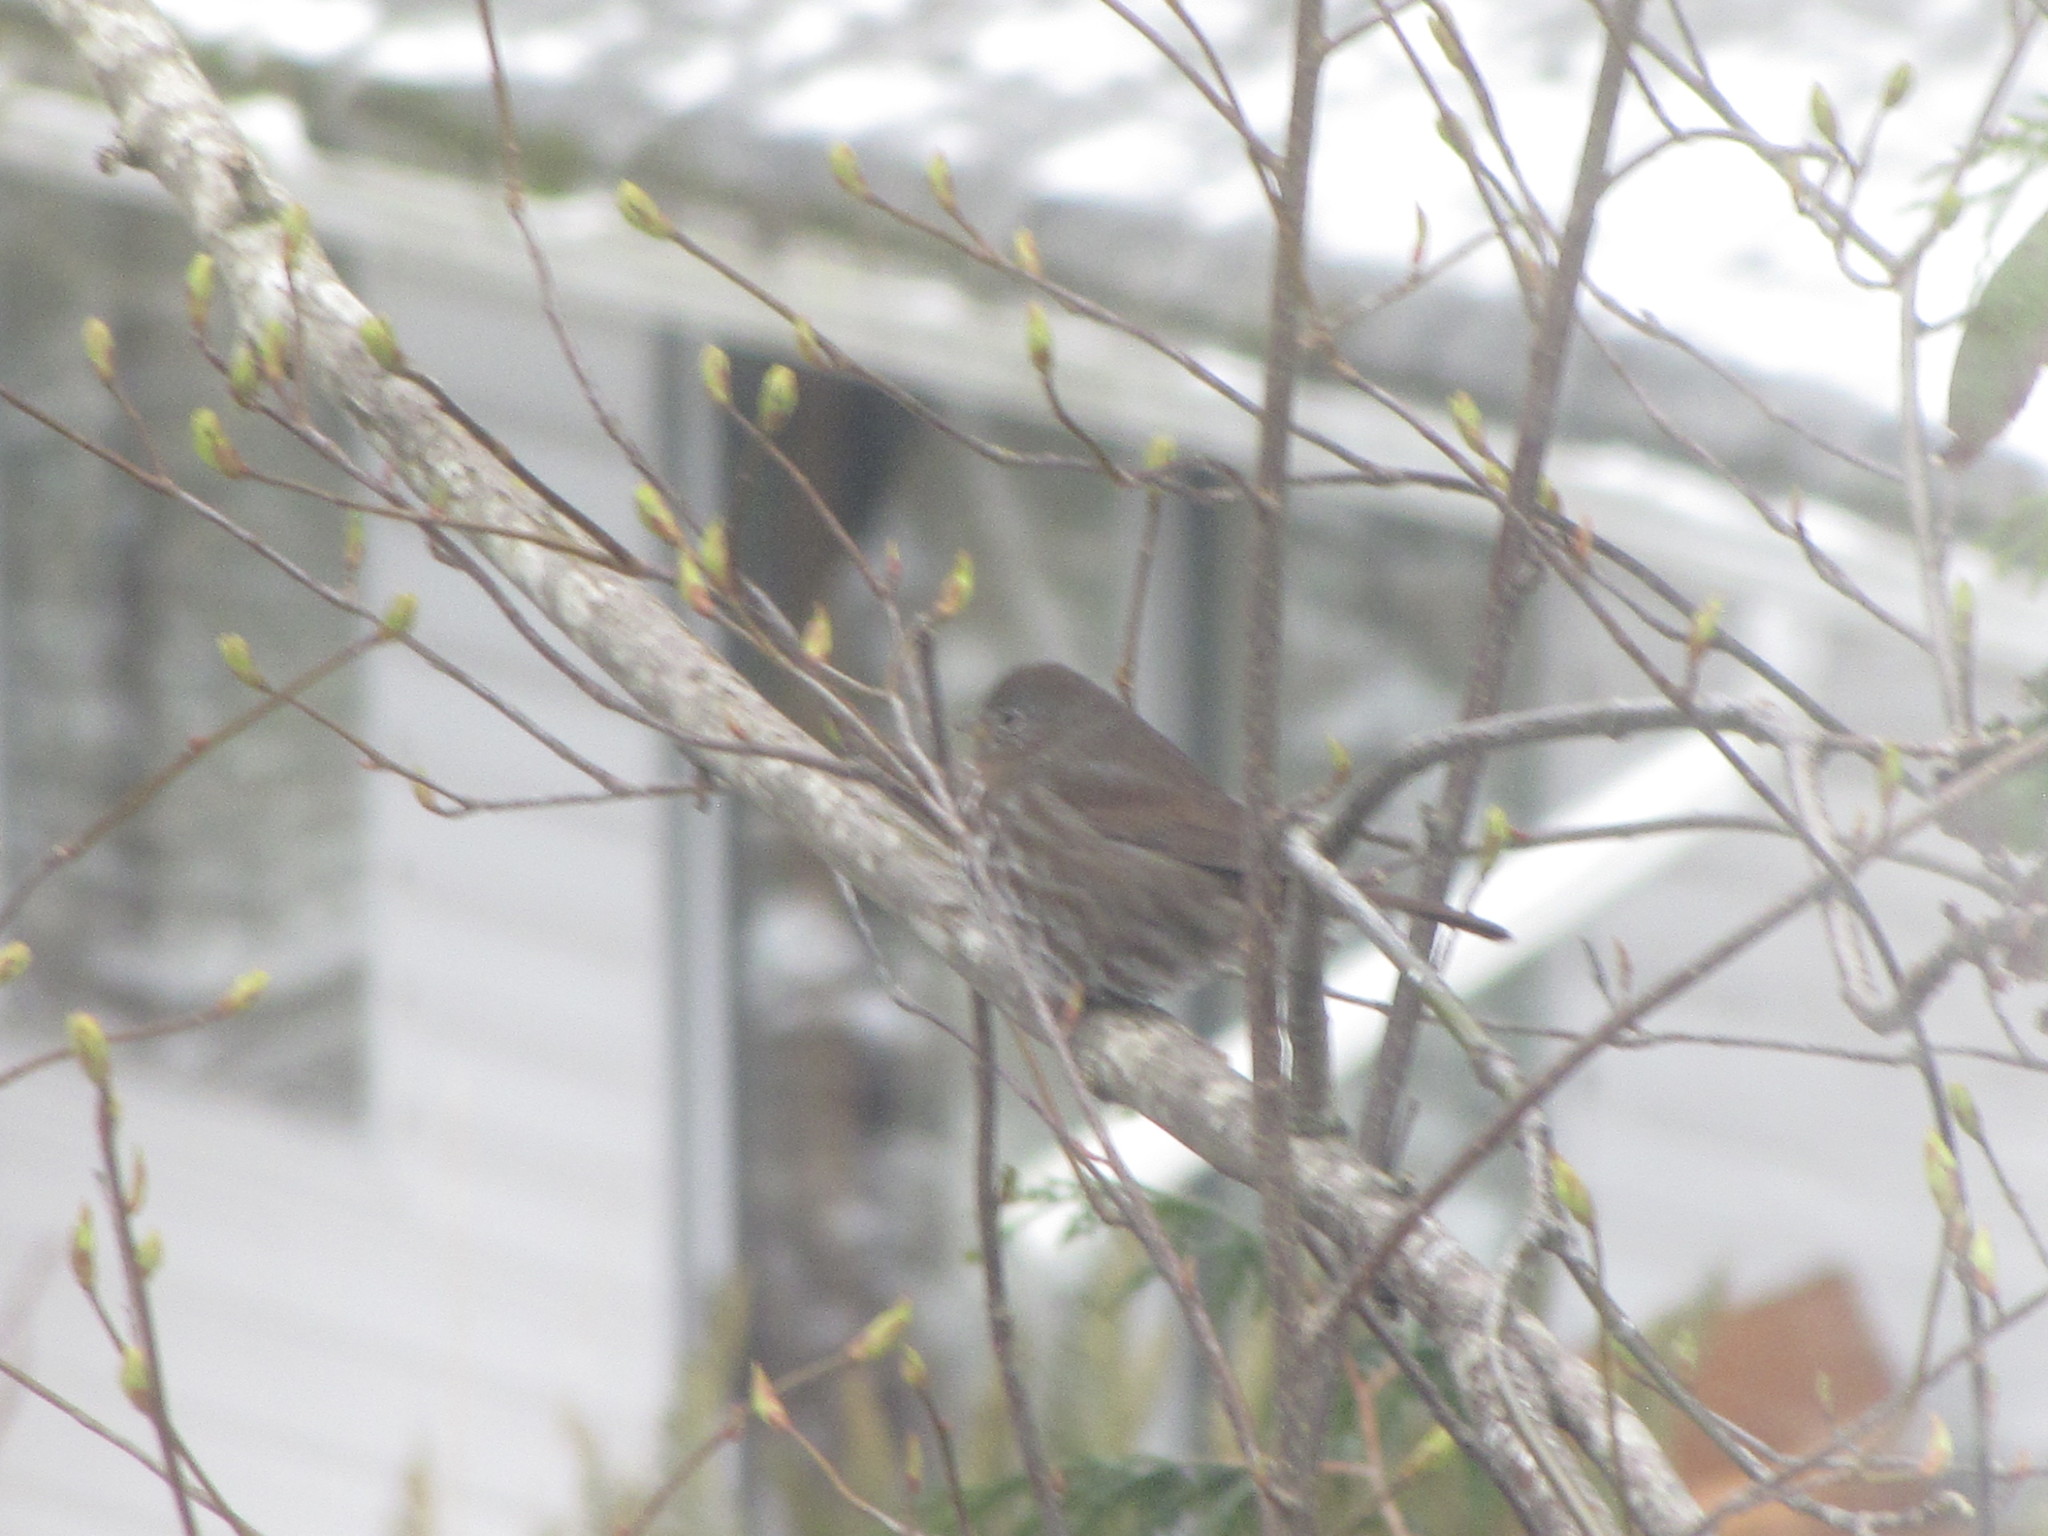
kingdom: Animalia
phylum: Chordata
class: Aves
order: Passeriformes
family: Passerellidae
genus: Passerella
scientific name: Passerella iliaca
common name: Fox sparrow
